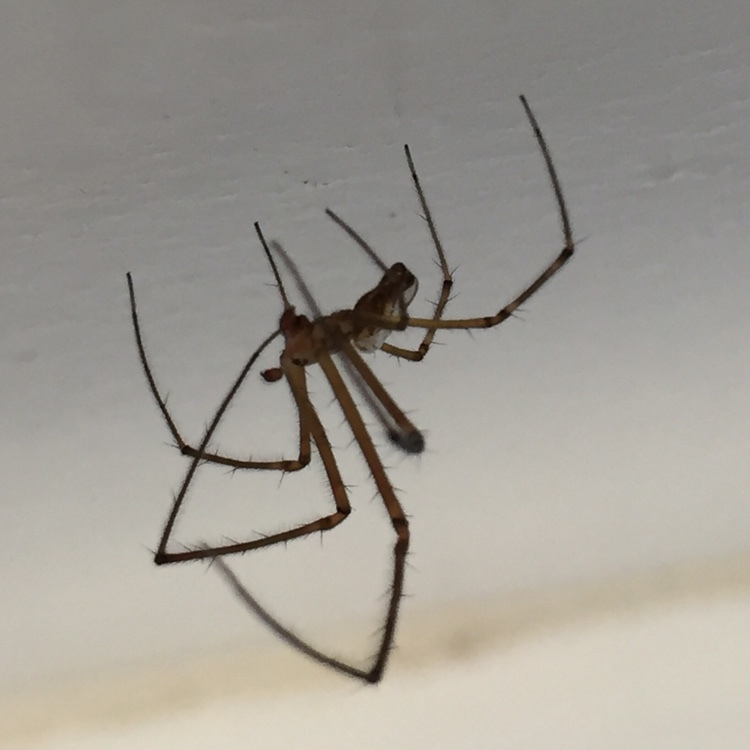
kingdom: Animalia
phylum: Arthropoda
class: Arachnida
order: Araneae
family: Tetragnathidae
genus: Leucauge
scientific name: Leucauge dromedaria
